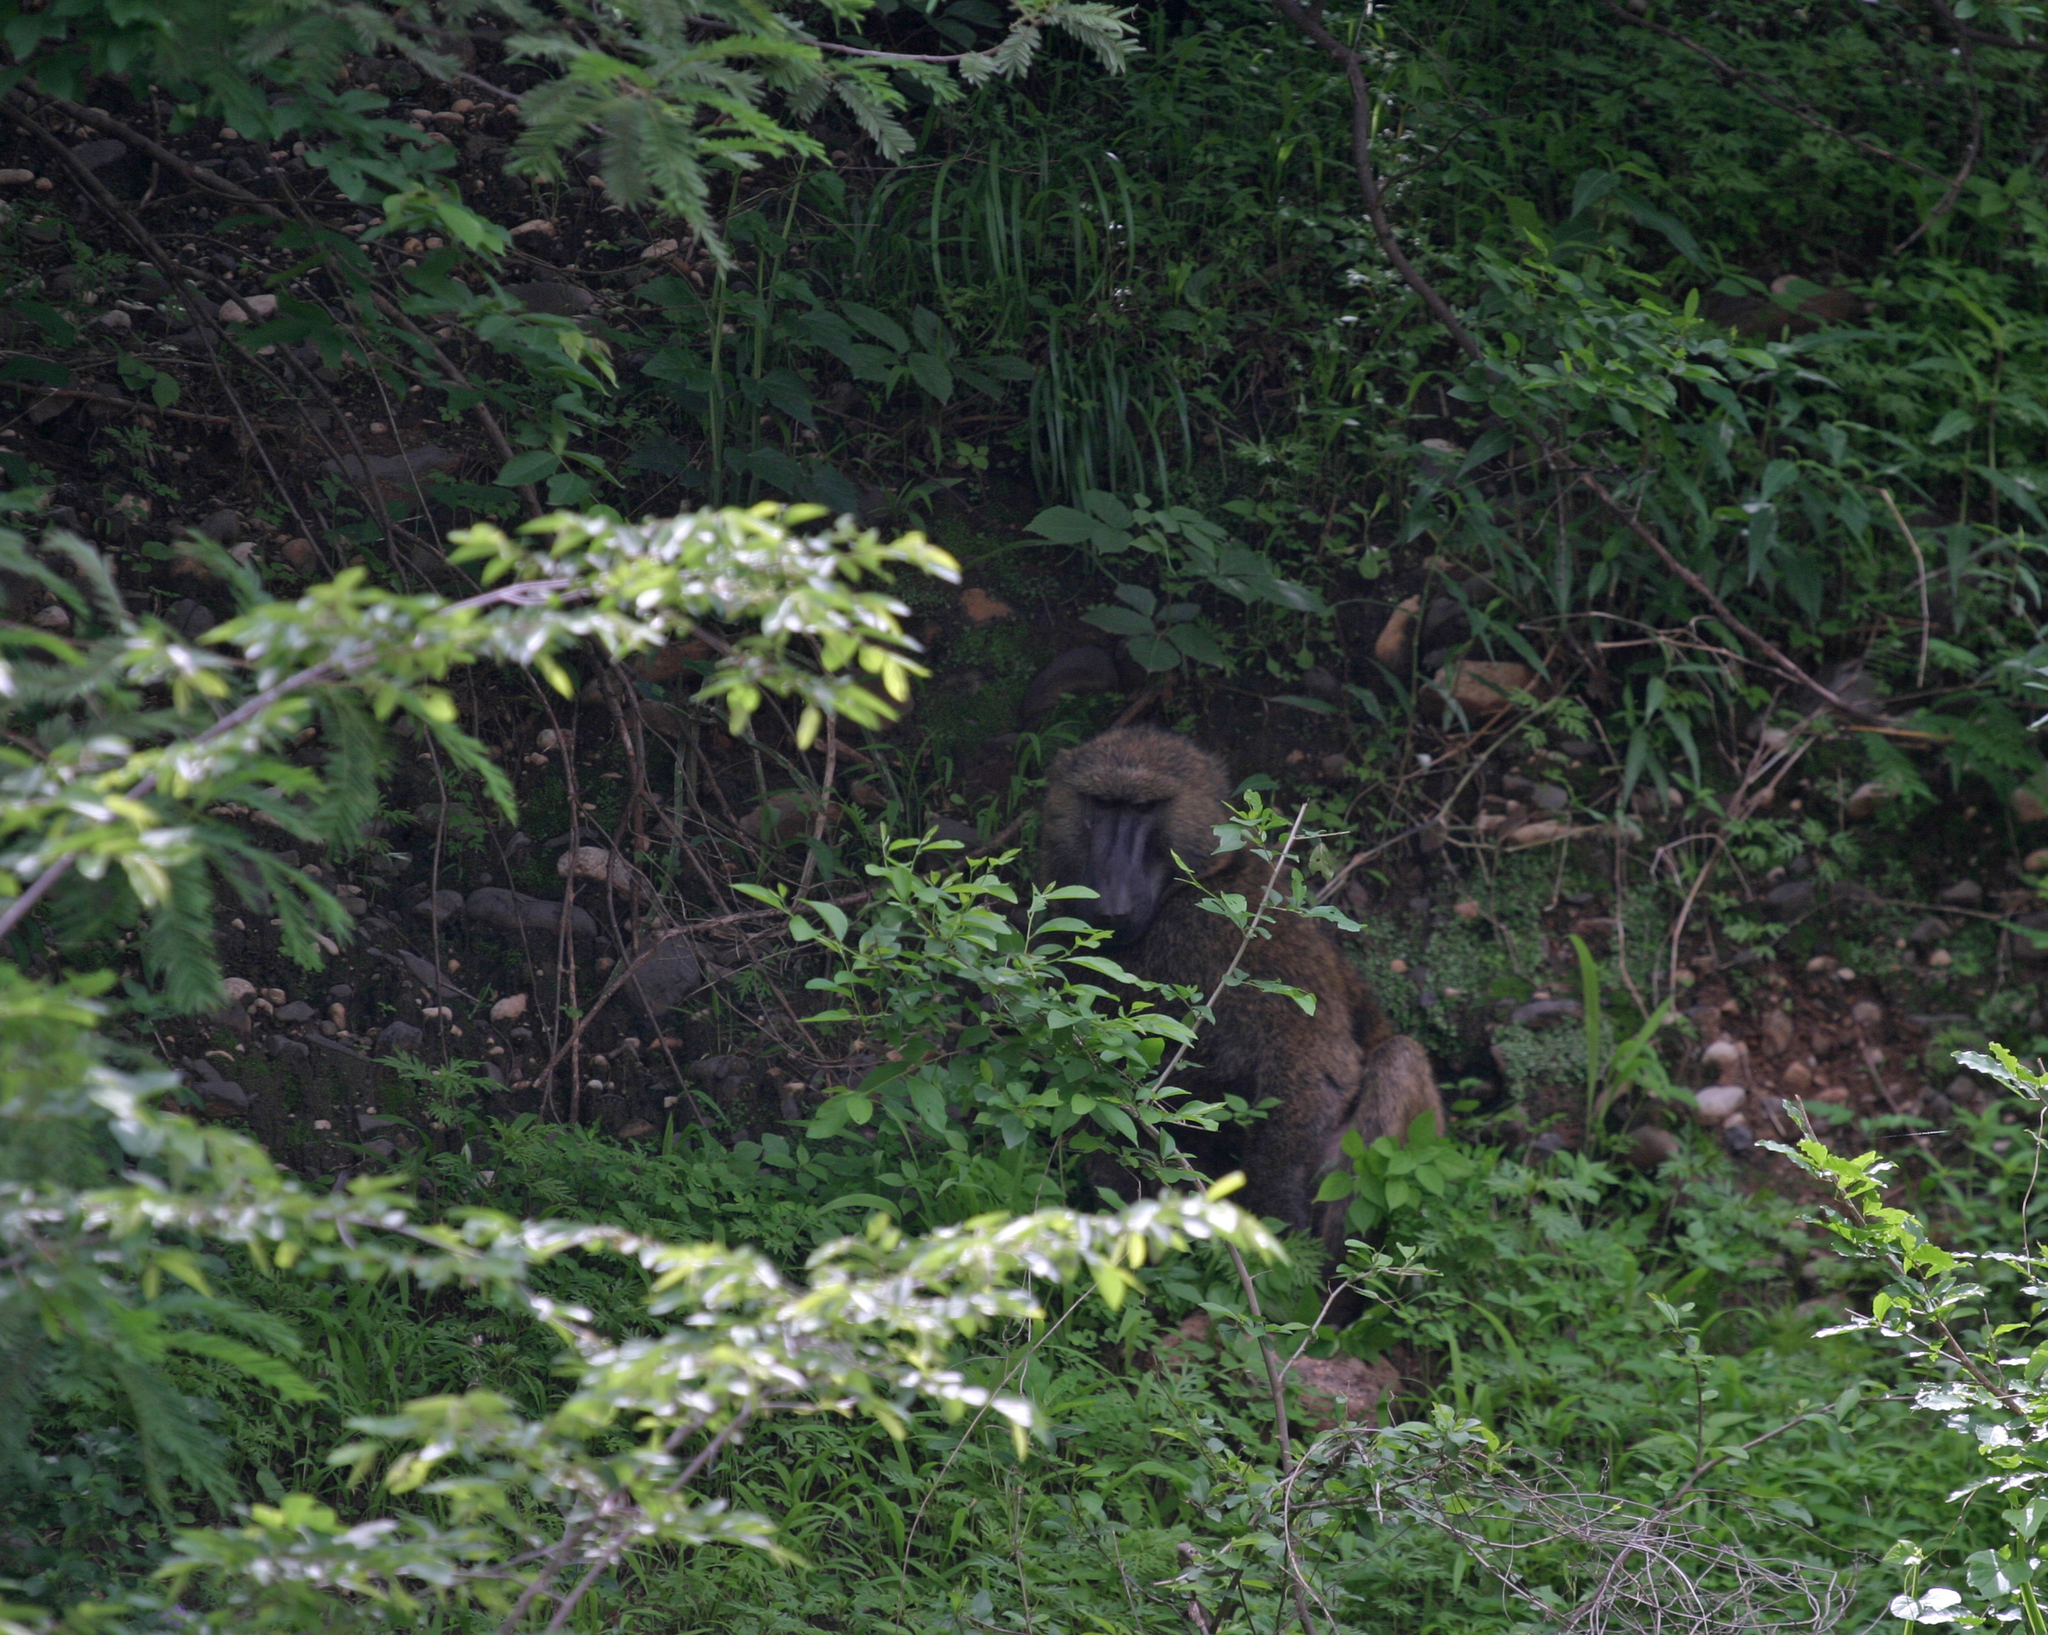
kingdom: Animalia
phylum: Chordata
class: Mammalia
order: Primates
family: Cercopithecidae
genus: Papio
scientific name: Papio anubis
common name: Olive baboon
